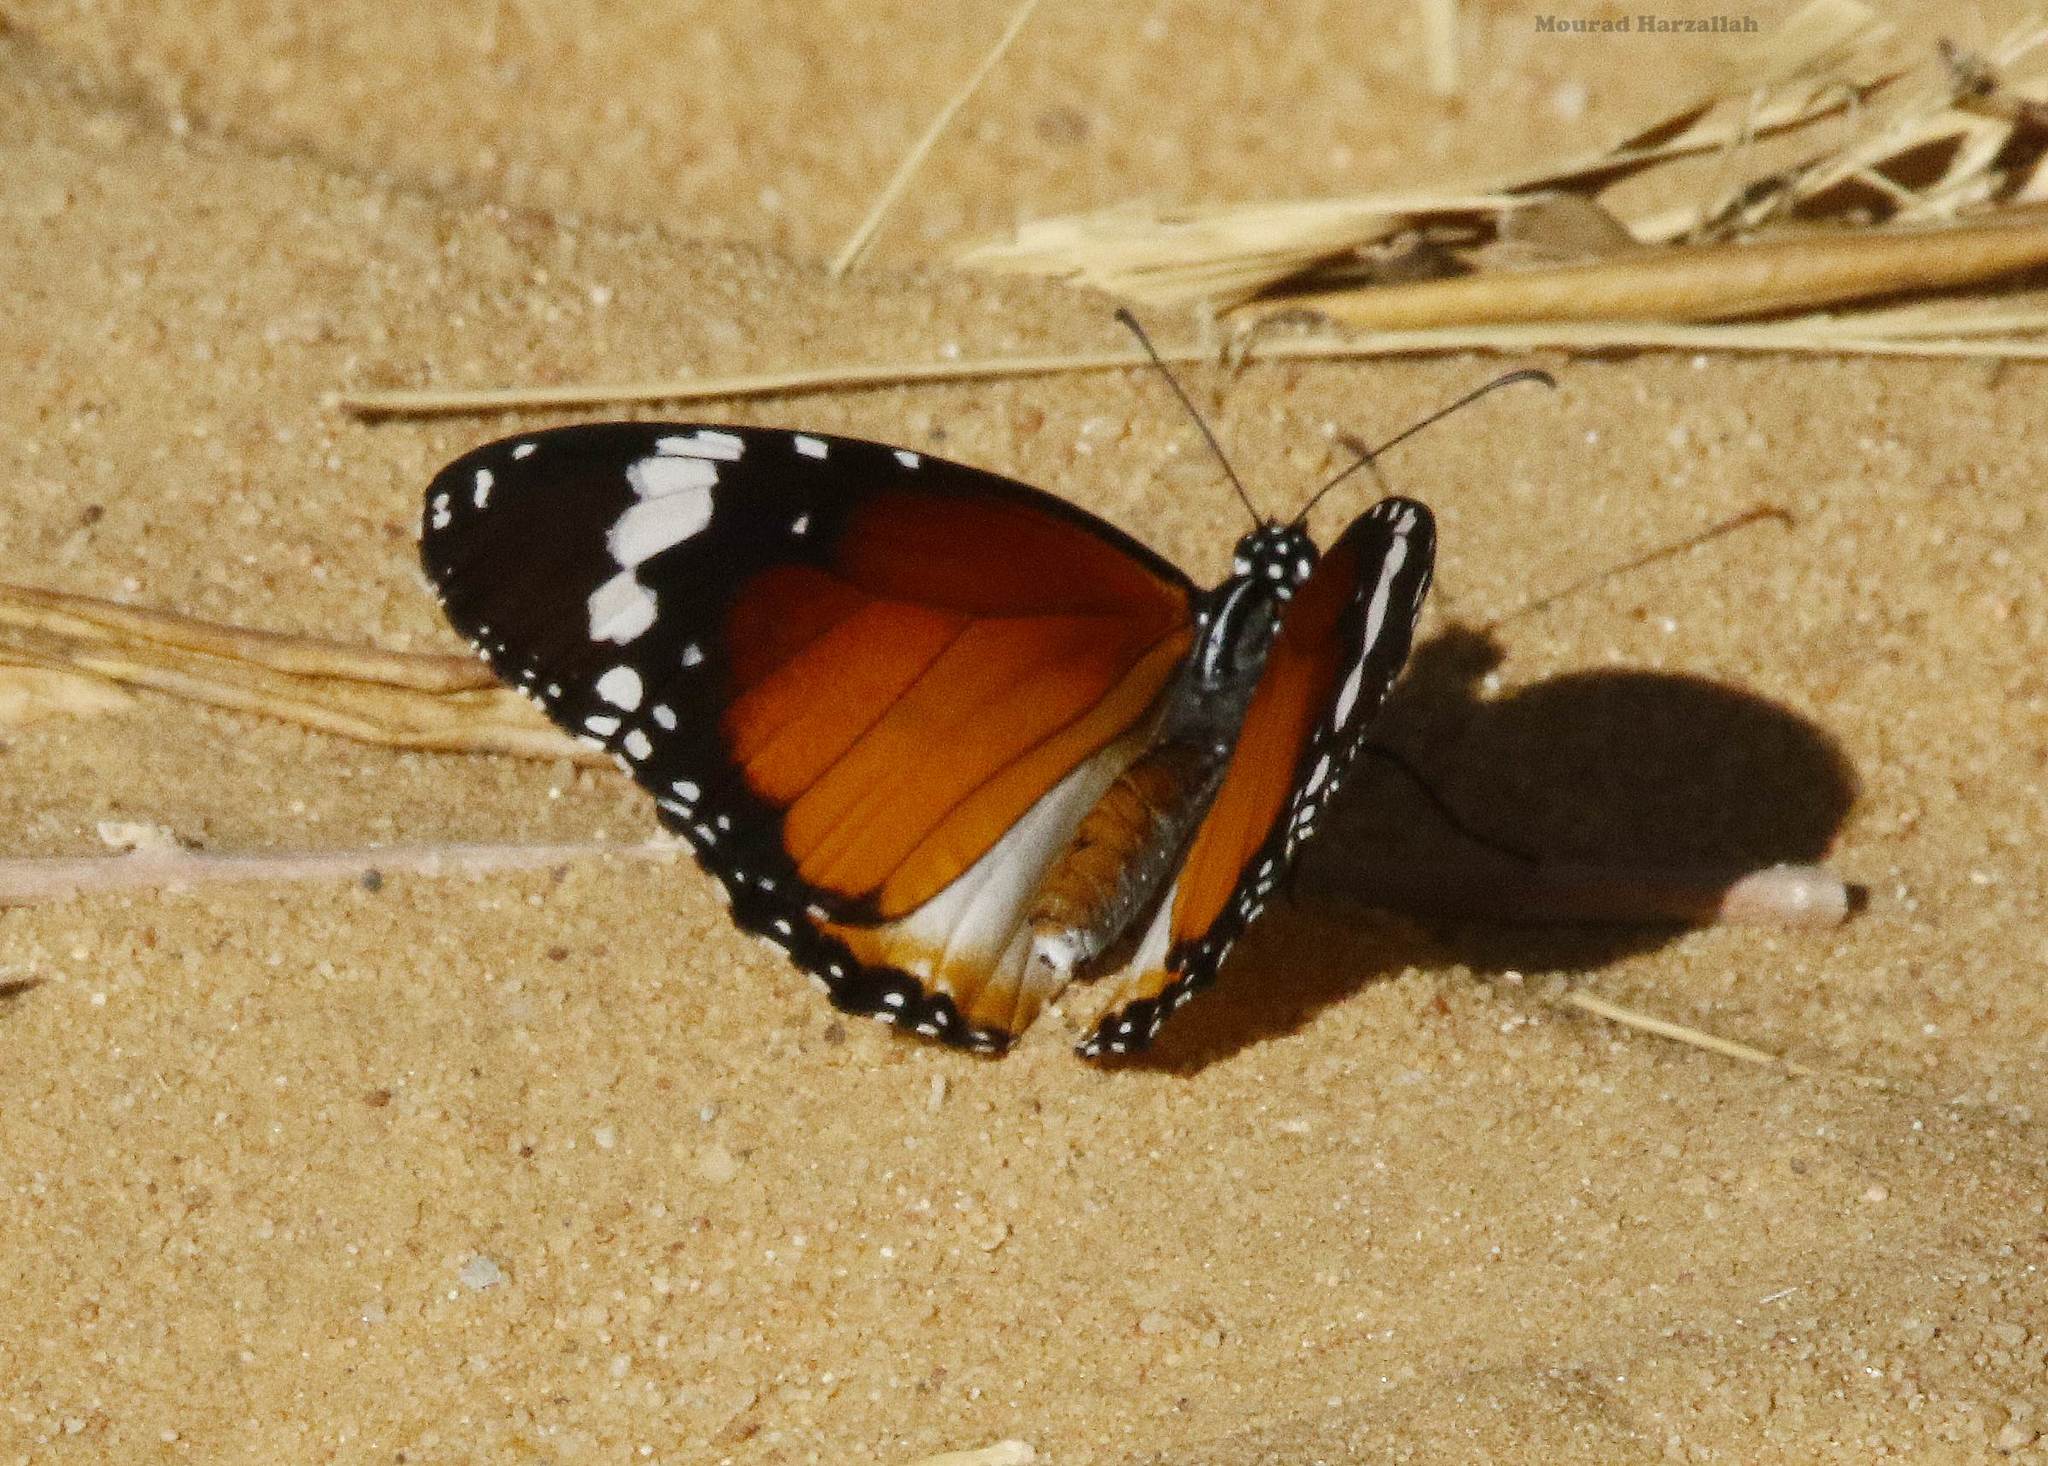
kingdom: Animalia
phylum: Arthropoda
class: Insecta
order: Lepidoptera
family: Nymphalidae
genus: Danaus
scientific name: Danaus chrysippus
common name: Plain tiger
